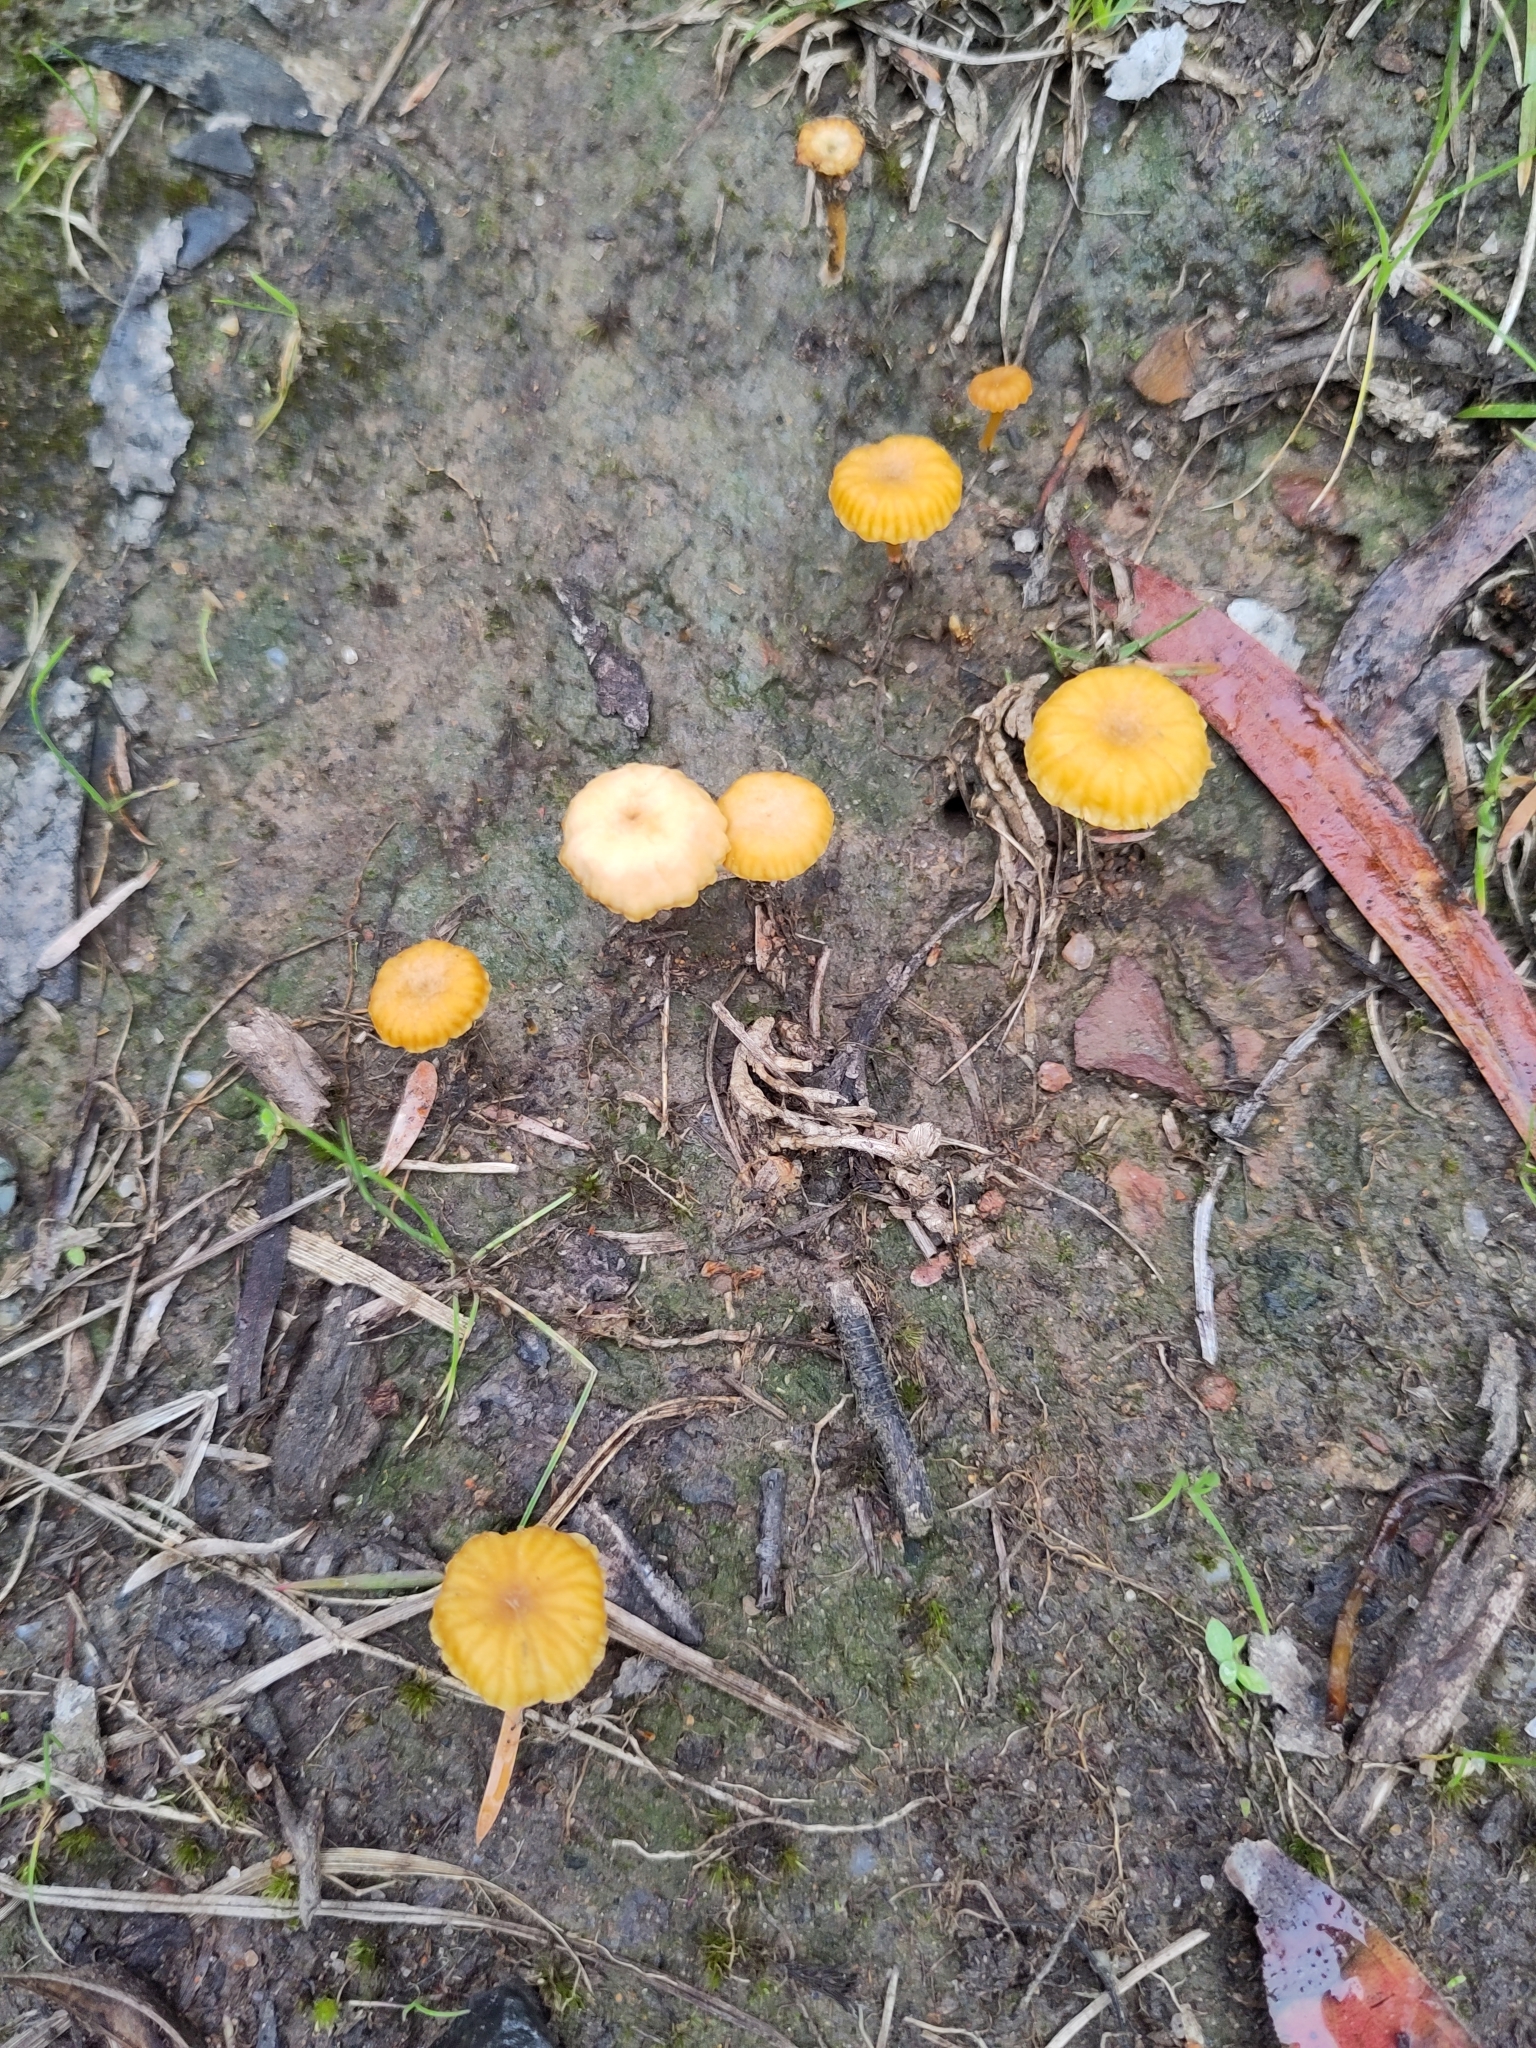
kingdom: Fungi
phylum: Basidiomycota
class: Agaricomycetes
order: Agaricales
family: Hygrophoraceae
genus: Lichenomphalia
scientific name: Lichenomphalia chromacea
